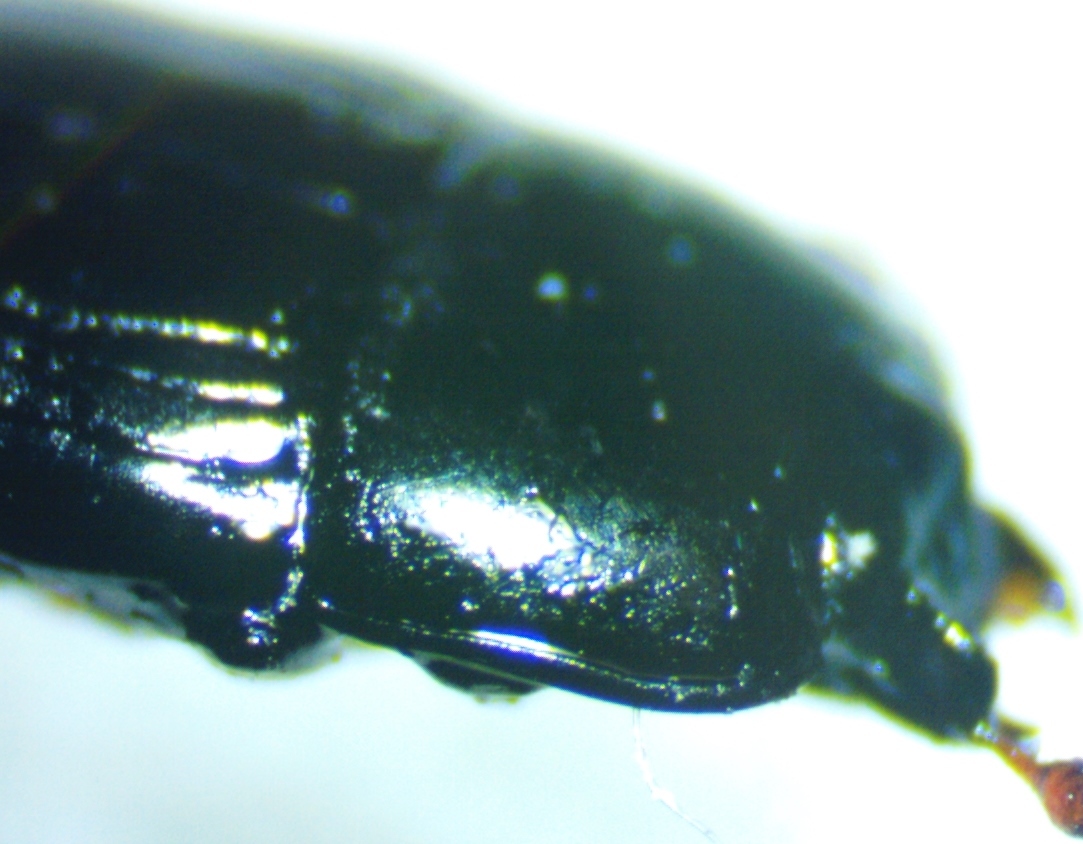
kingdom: Animalia
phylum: Arthropoda
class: Insecta
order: Coleoptera
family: Histeridae
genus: Platysoma
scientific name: Platysoma leconti
